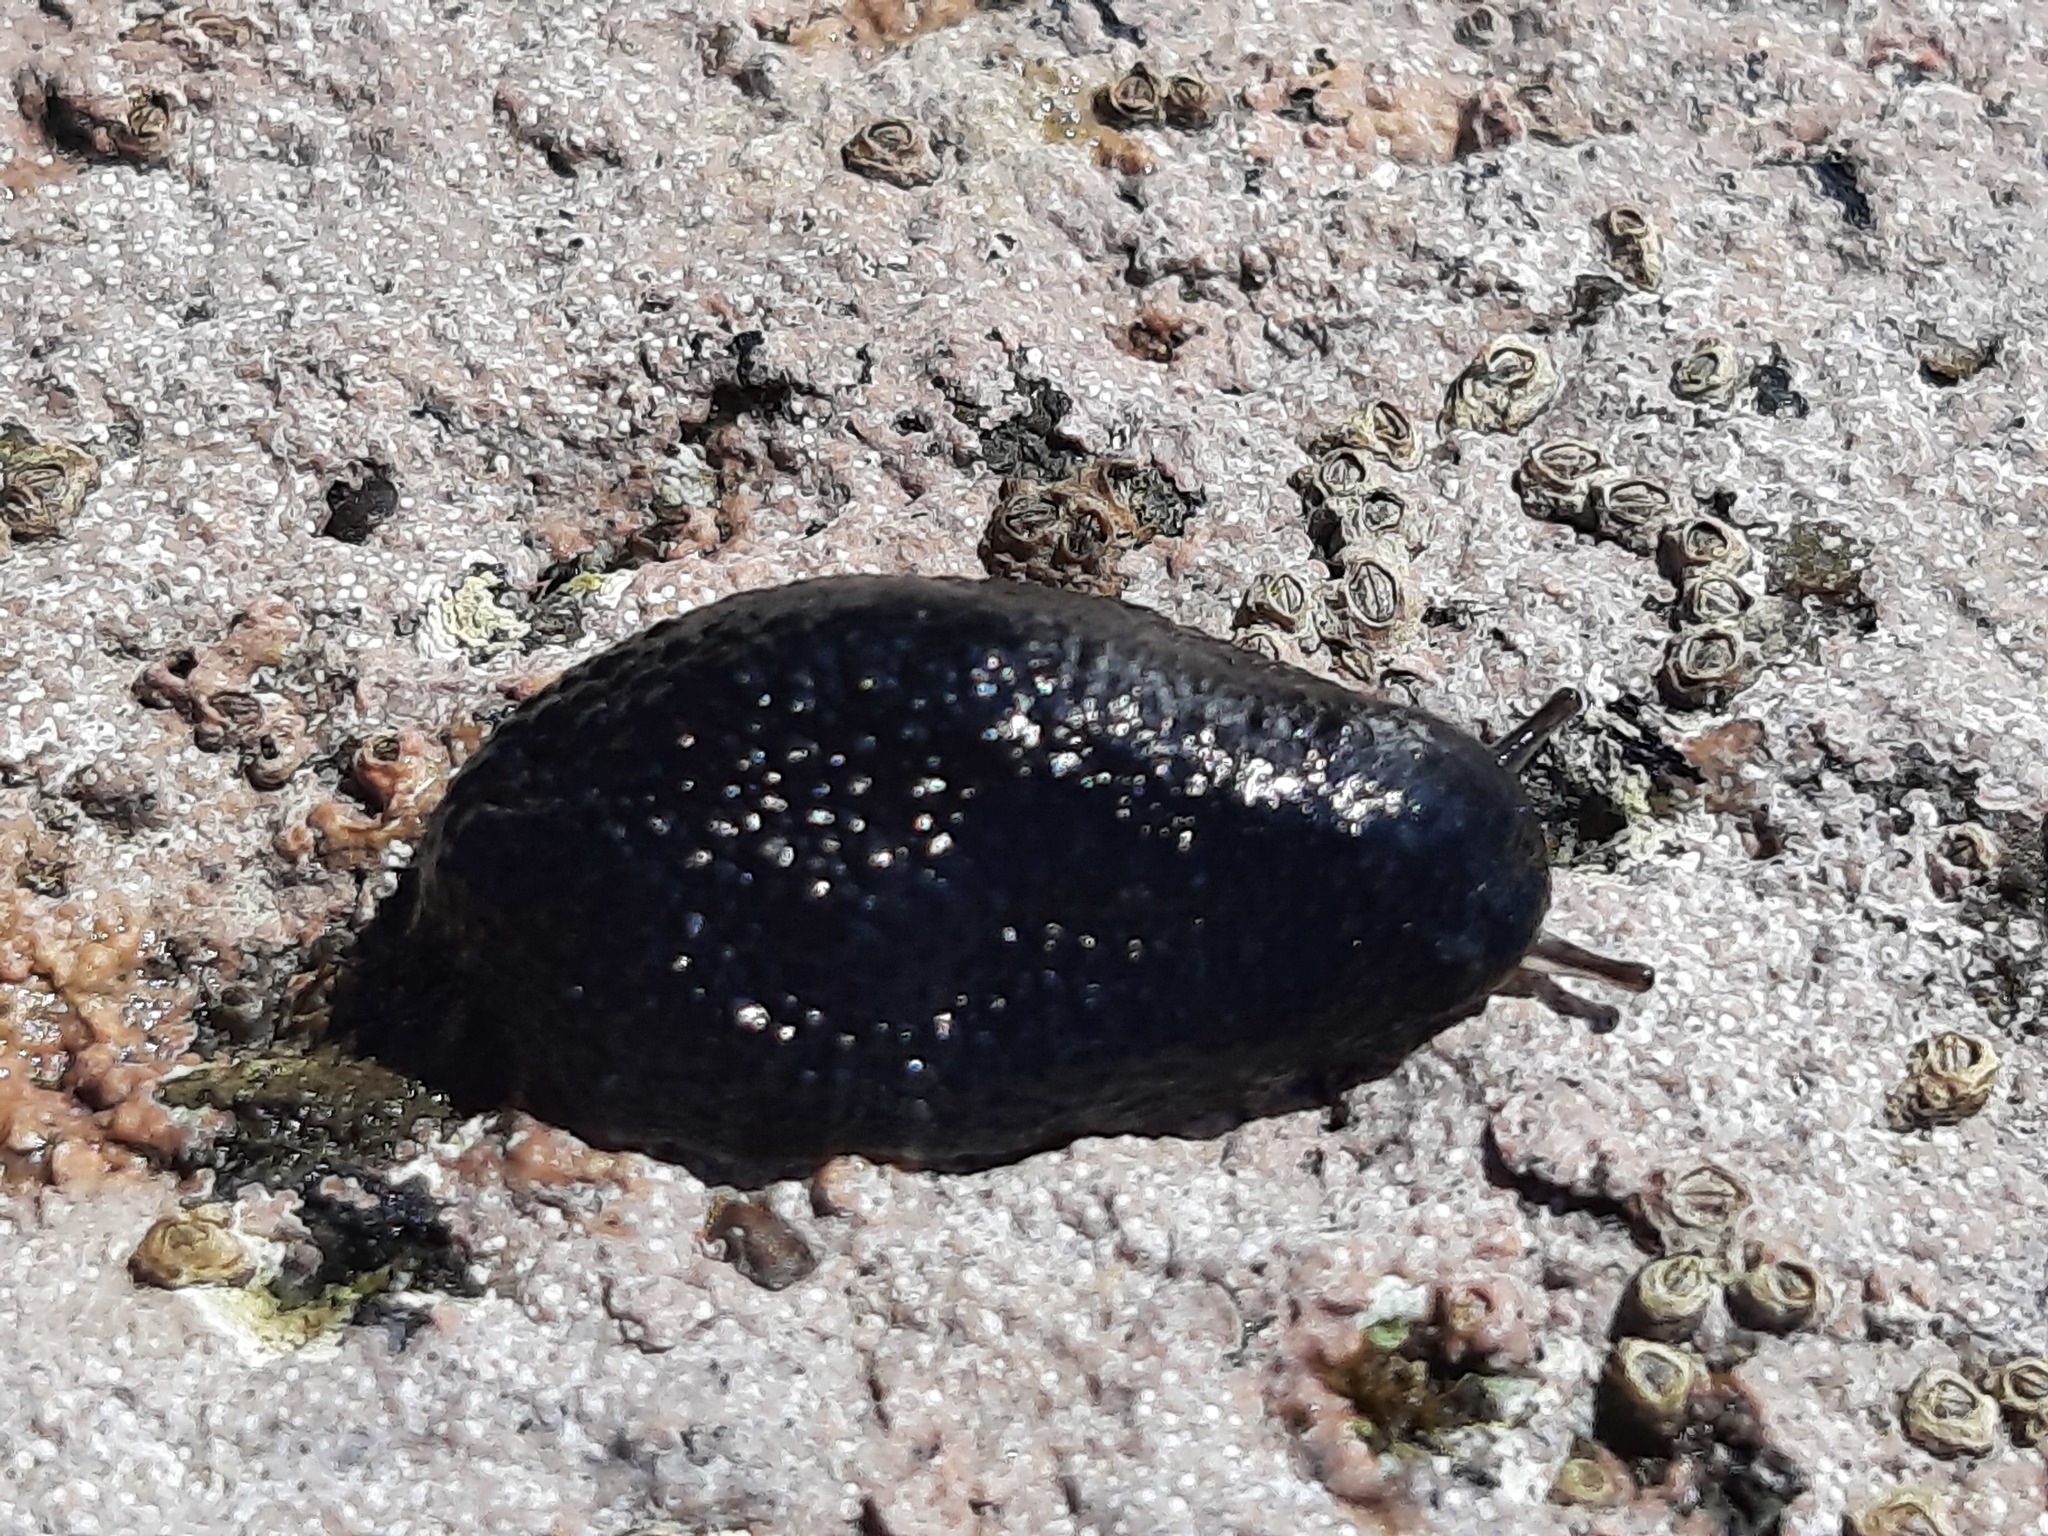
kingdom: Animalia
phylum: Mollusca
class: Gastropoda
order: Systellommatophora
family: Onchidiidae
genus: Onchidella
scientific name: Onchidella nigricans
